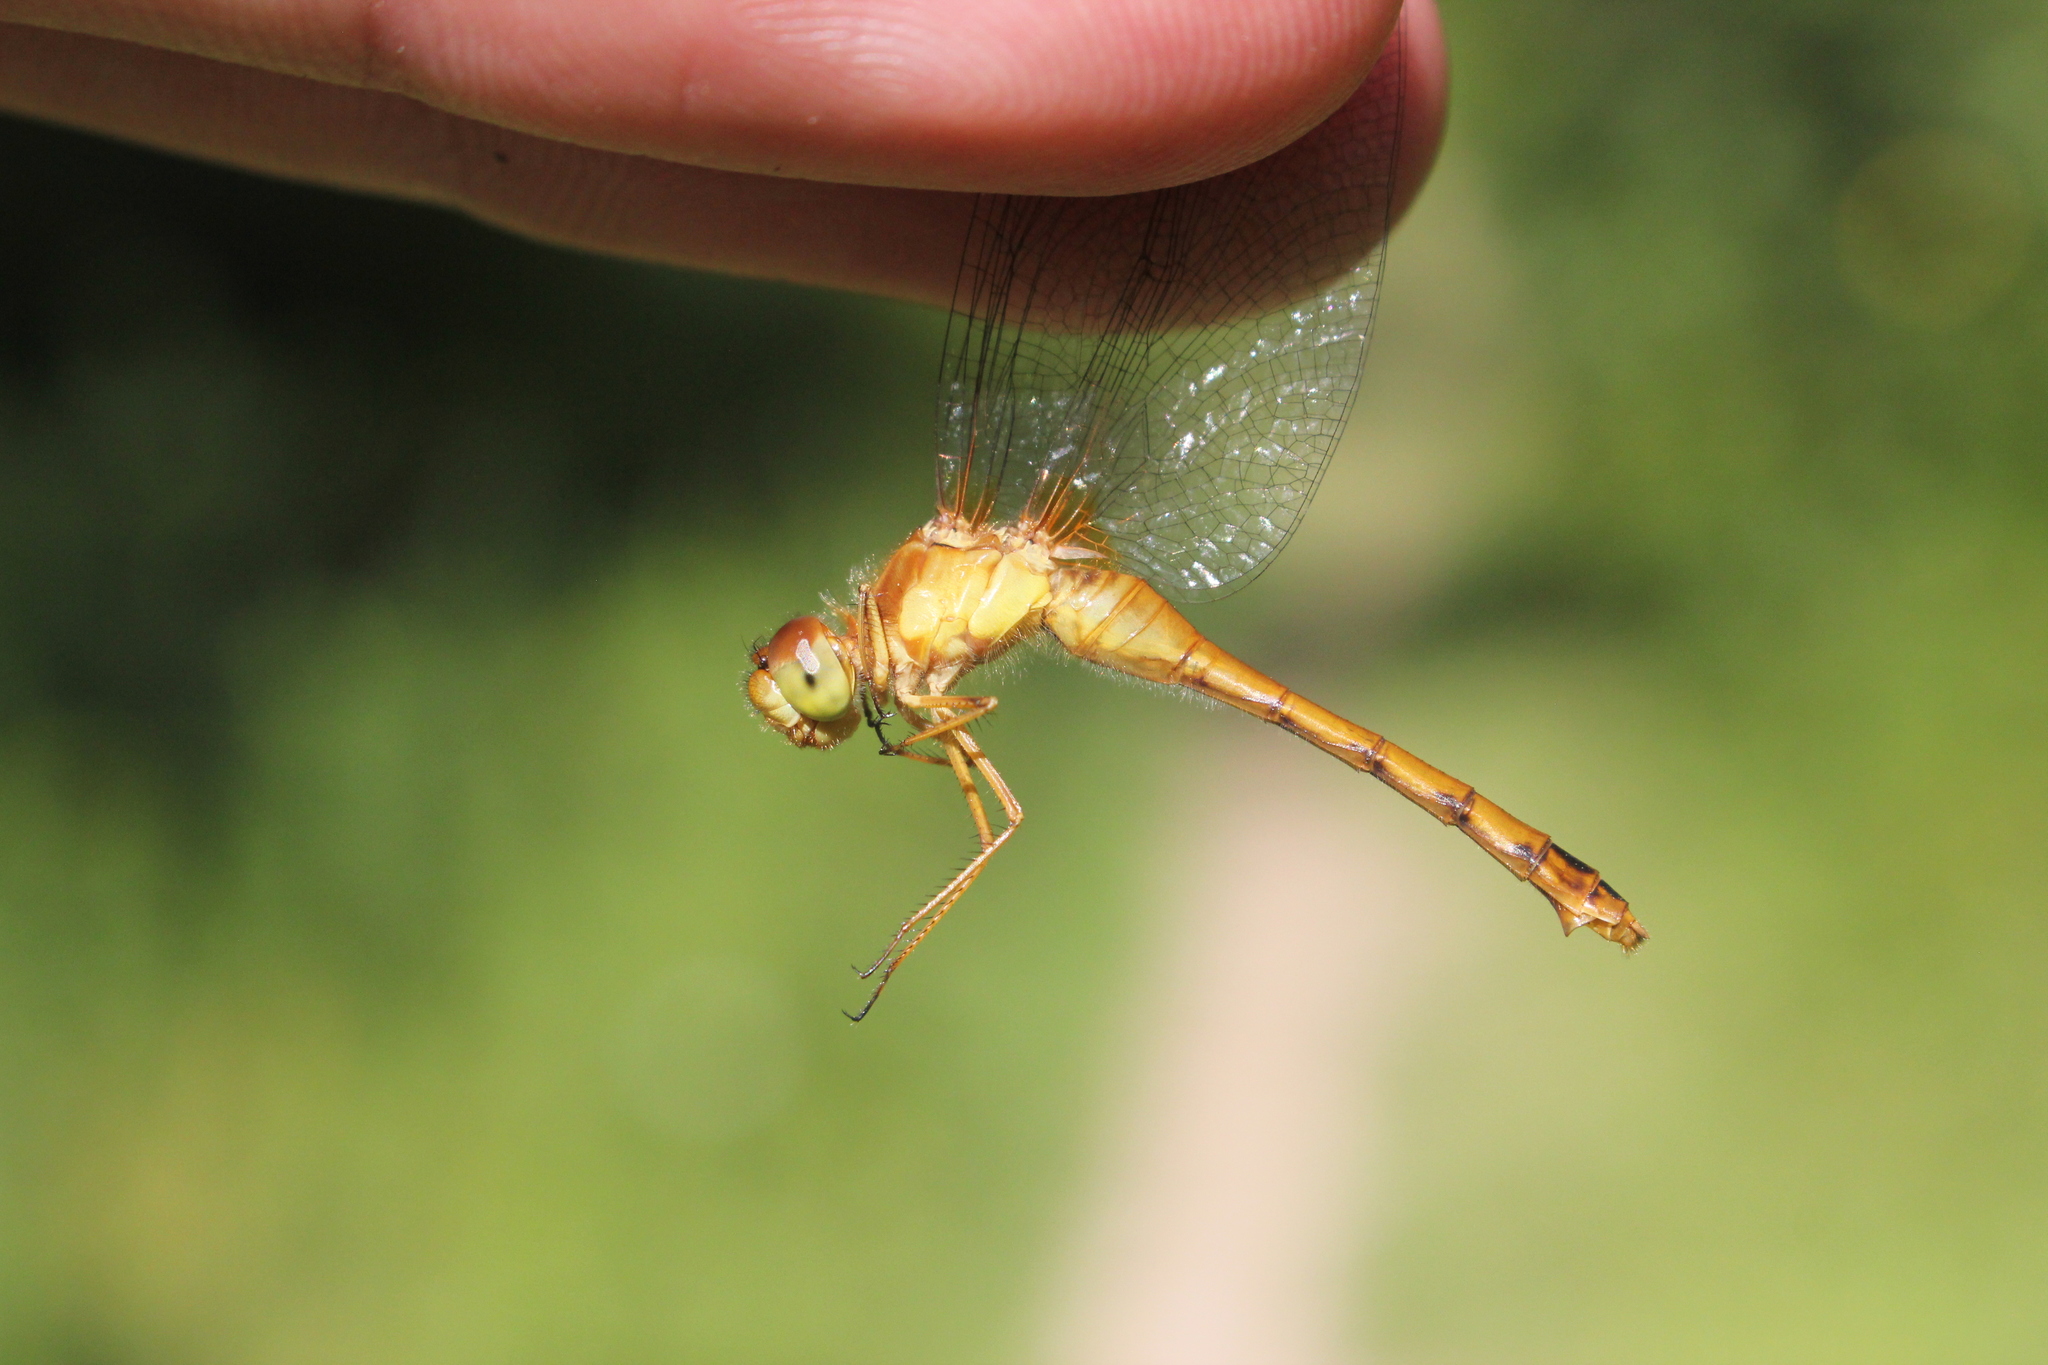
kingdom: Animalia
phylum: Arthropoda
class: Insecta
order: Odonata
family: Libellulidae
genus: Sympetrum
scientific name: Sympetrum vicinum
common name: Autumn meadowhawk
